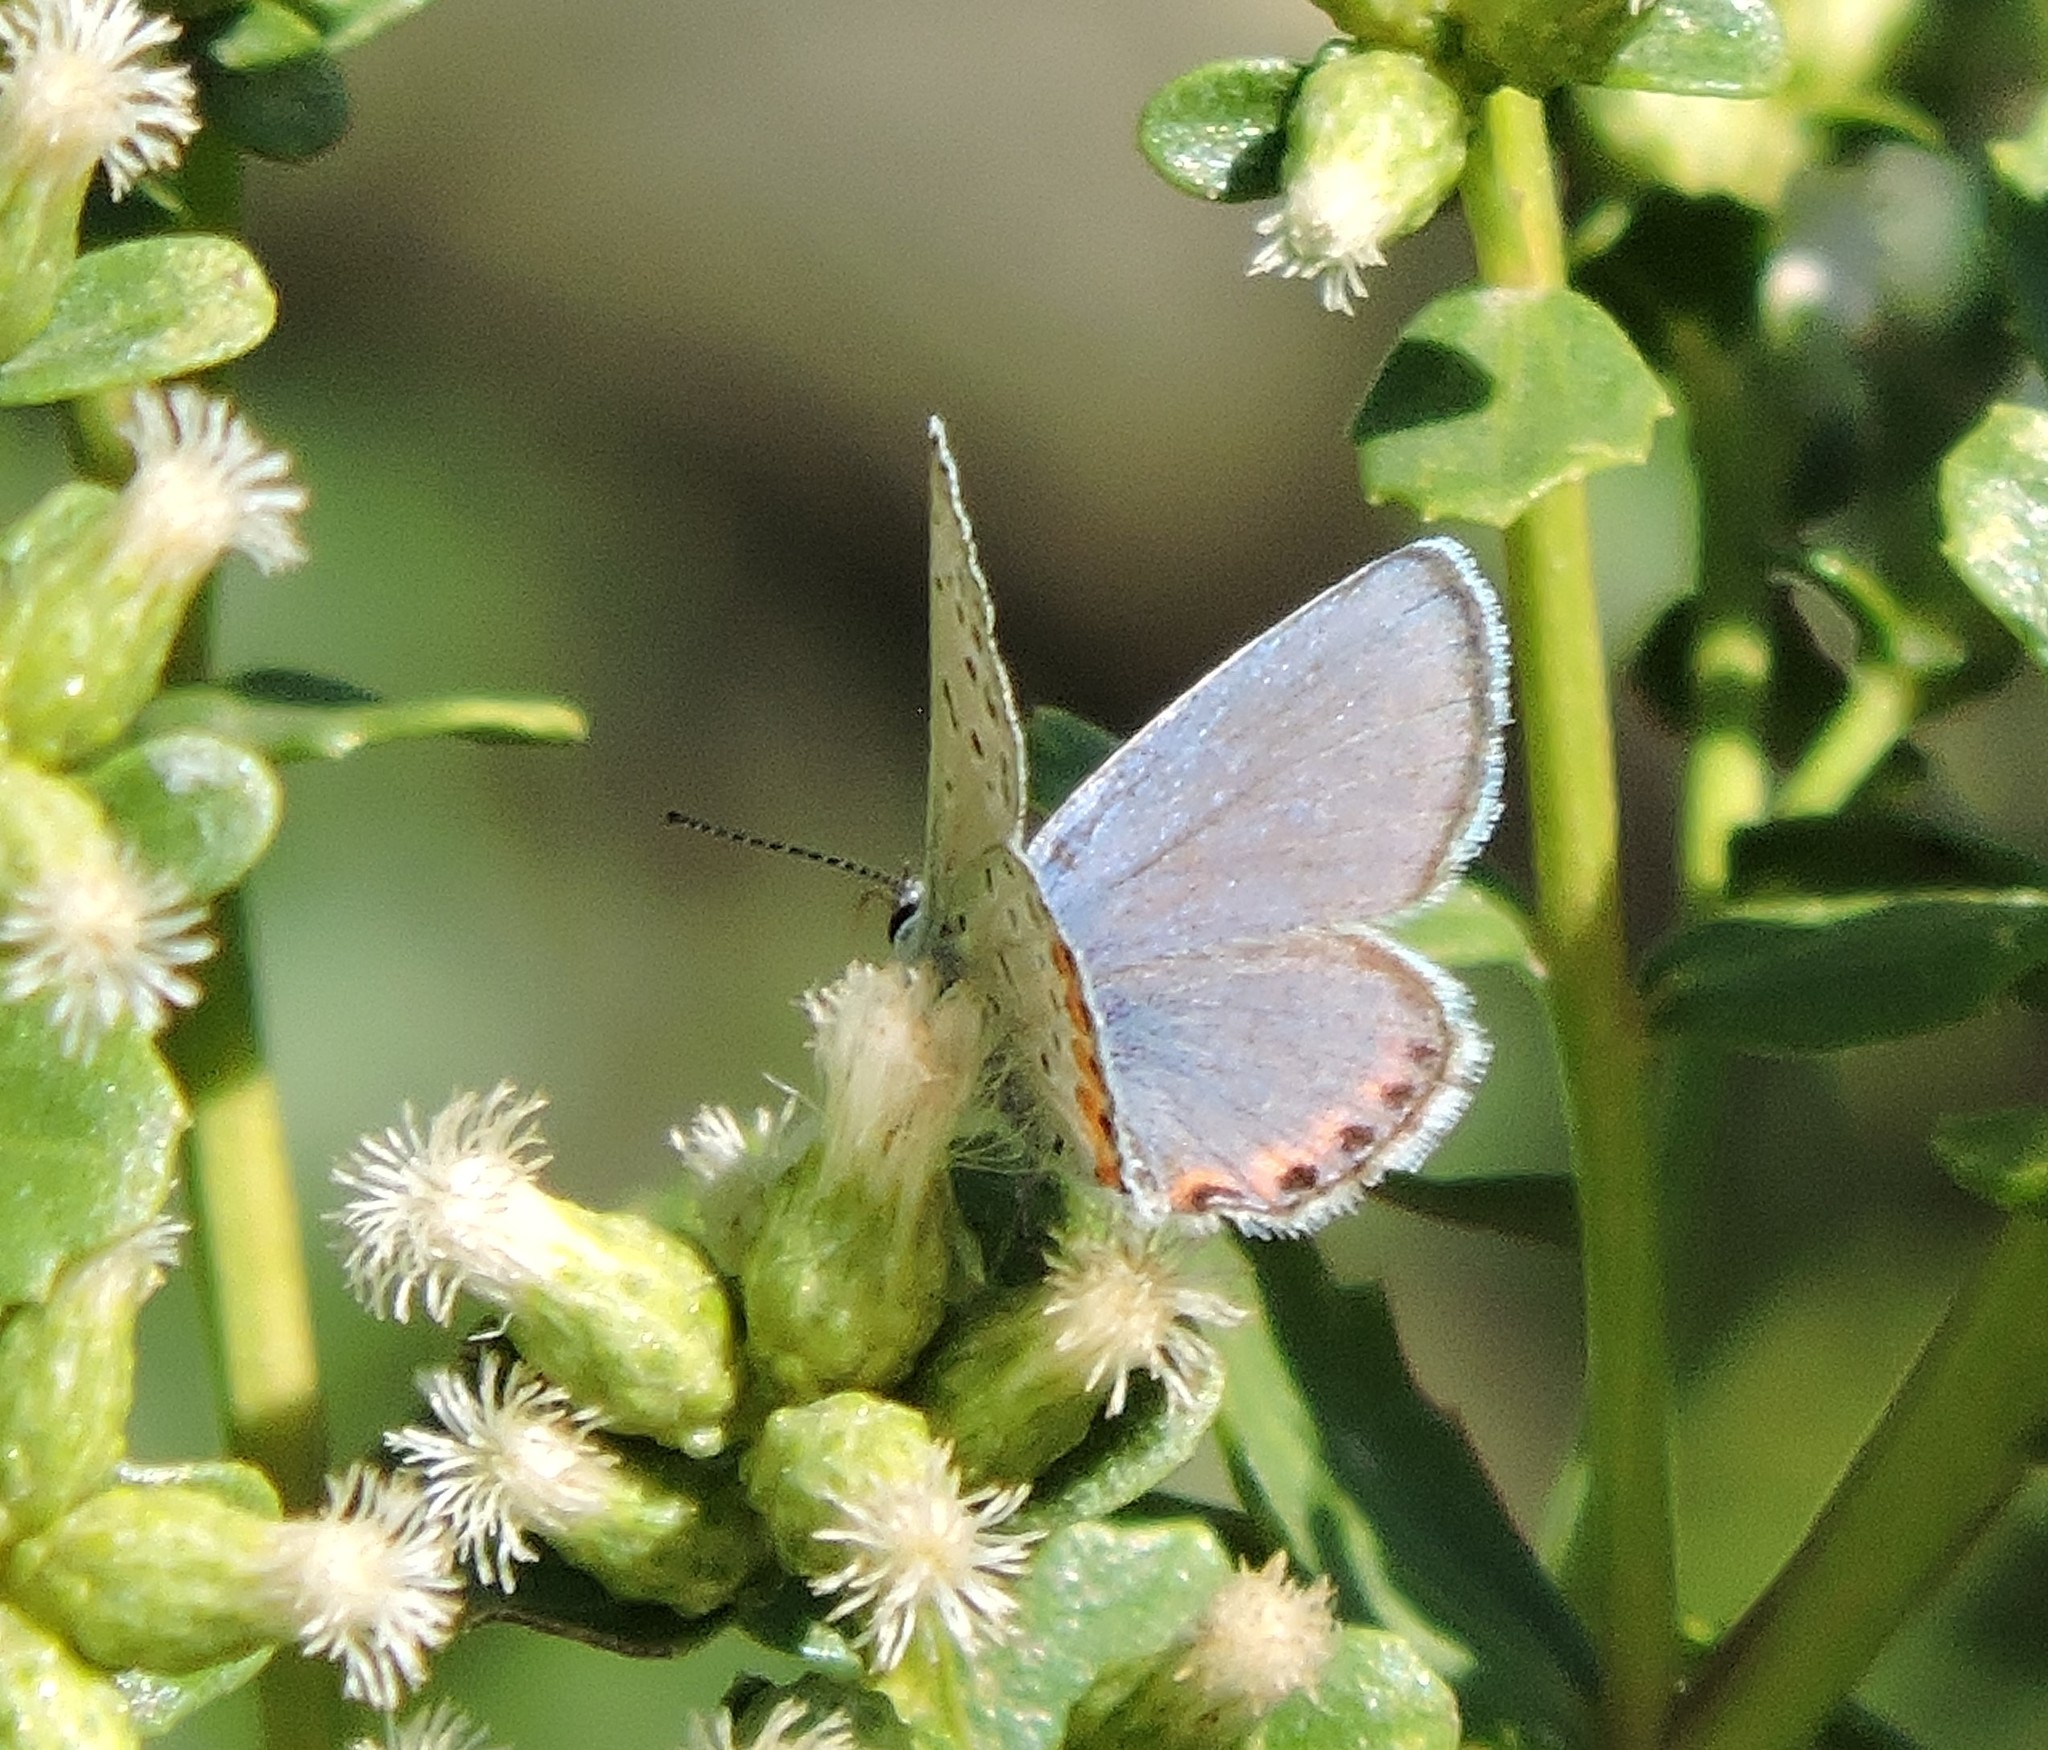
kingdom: Animalia
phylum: Arthropoda
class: Insecta
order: Lepidoptera
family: Lycaenidae
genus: Icaricia
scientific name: Icaricia acmon
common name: Acmon blue
